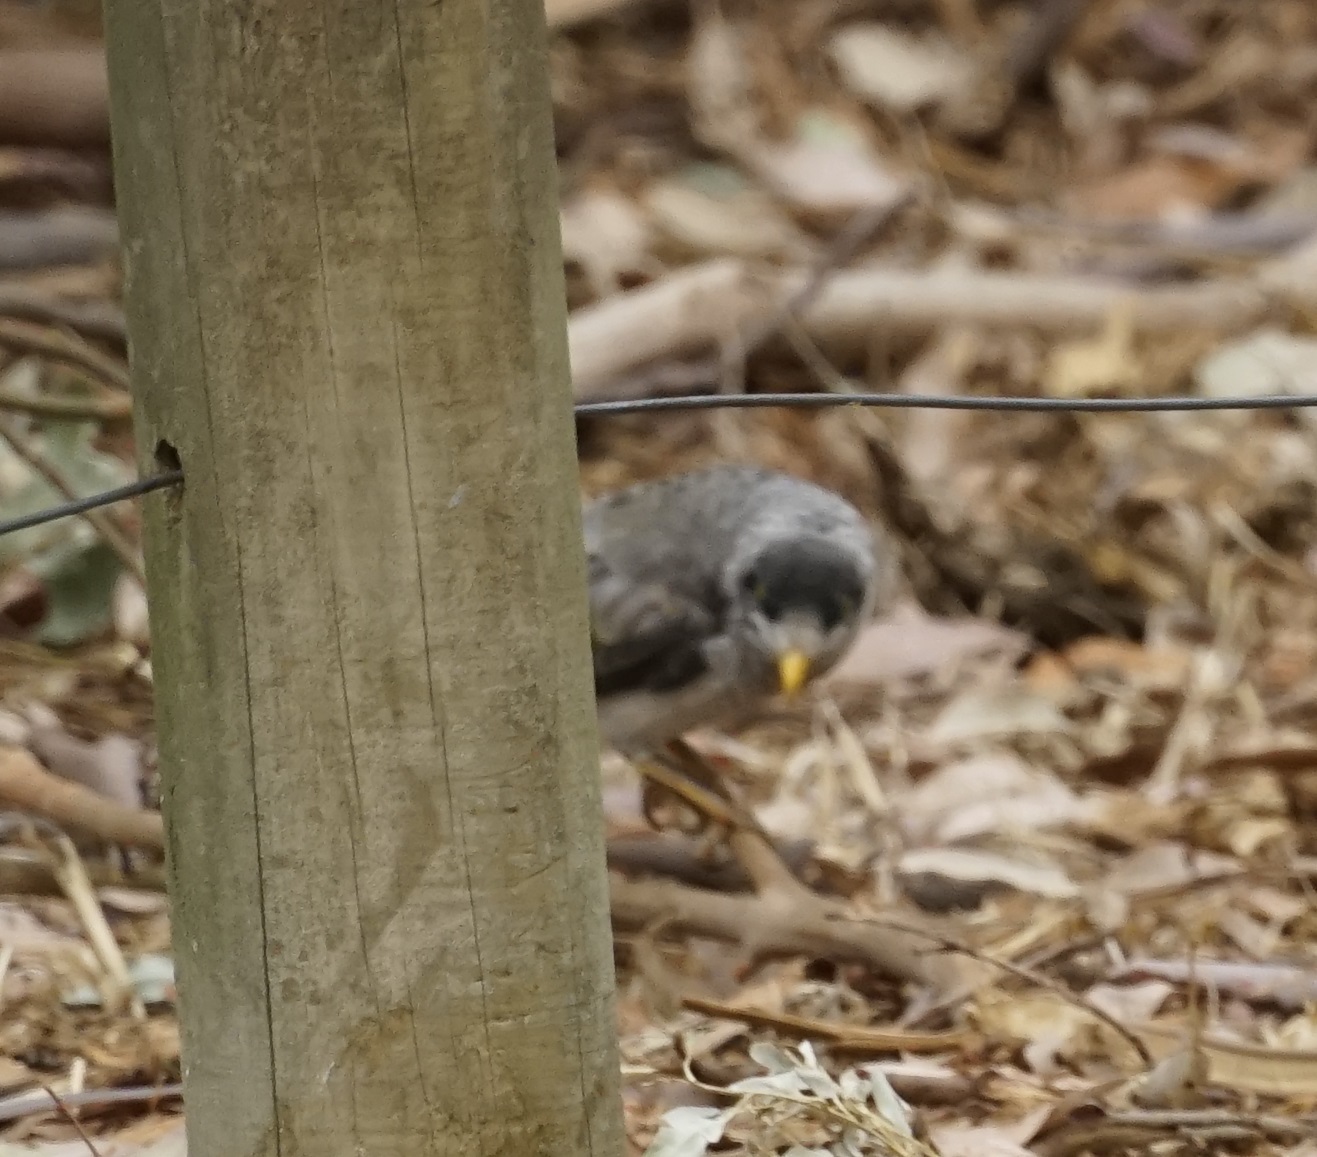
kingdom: Animalia
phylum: Chordata
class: Aves
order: Passeriformes
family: Meliphagidae
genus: Manorina
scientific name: Manorina melanocephala
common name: Noisy miner
